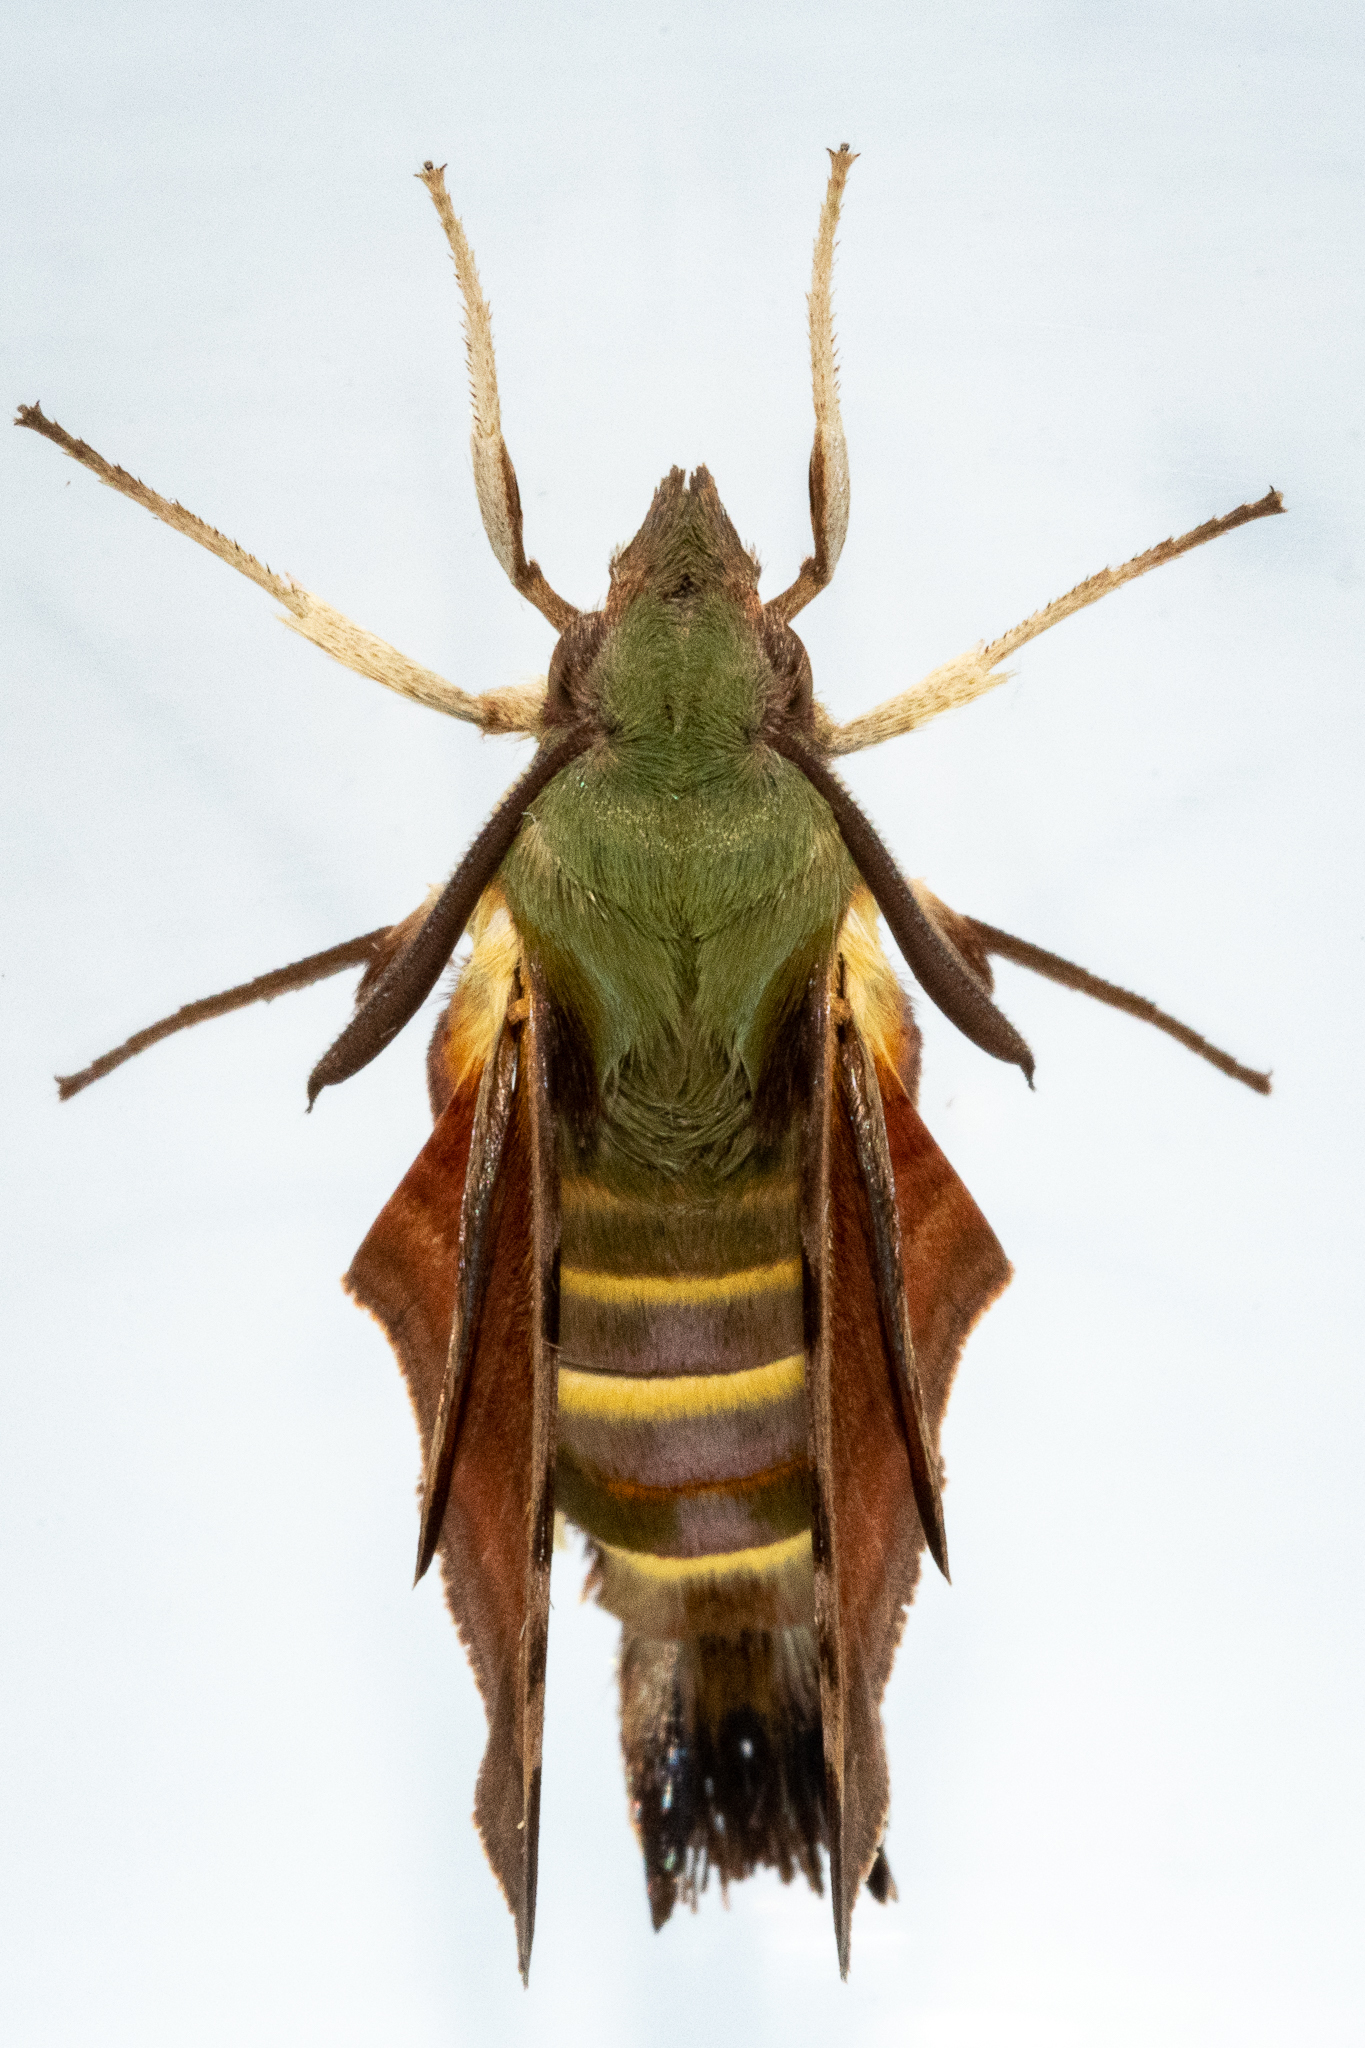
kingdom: Animalia
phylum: Arthropoda
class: Insecta
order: Lepidoptera
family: Sphingidae
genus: Macroglossum
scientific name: Macroglossum trochilus
